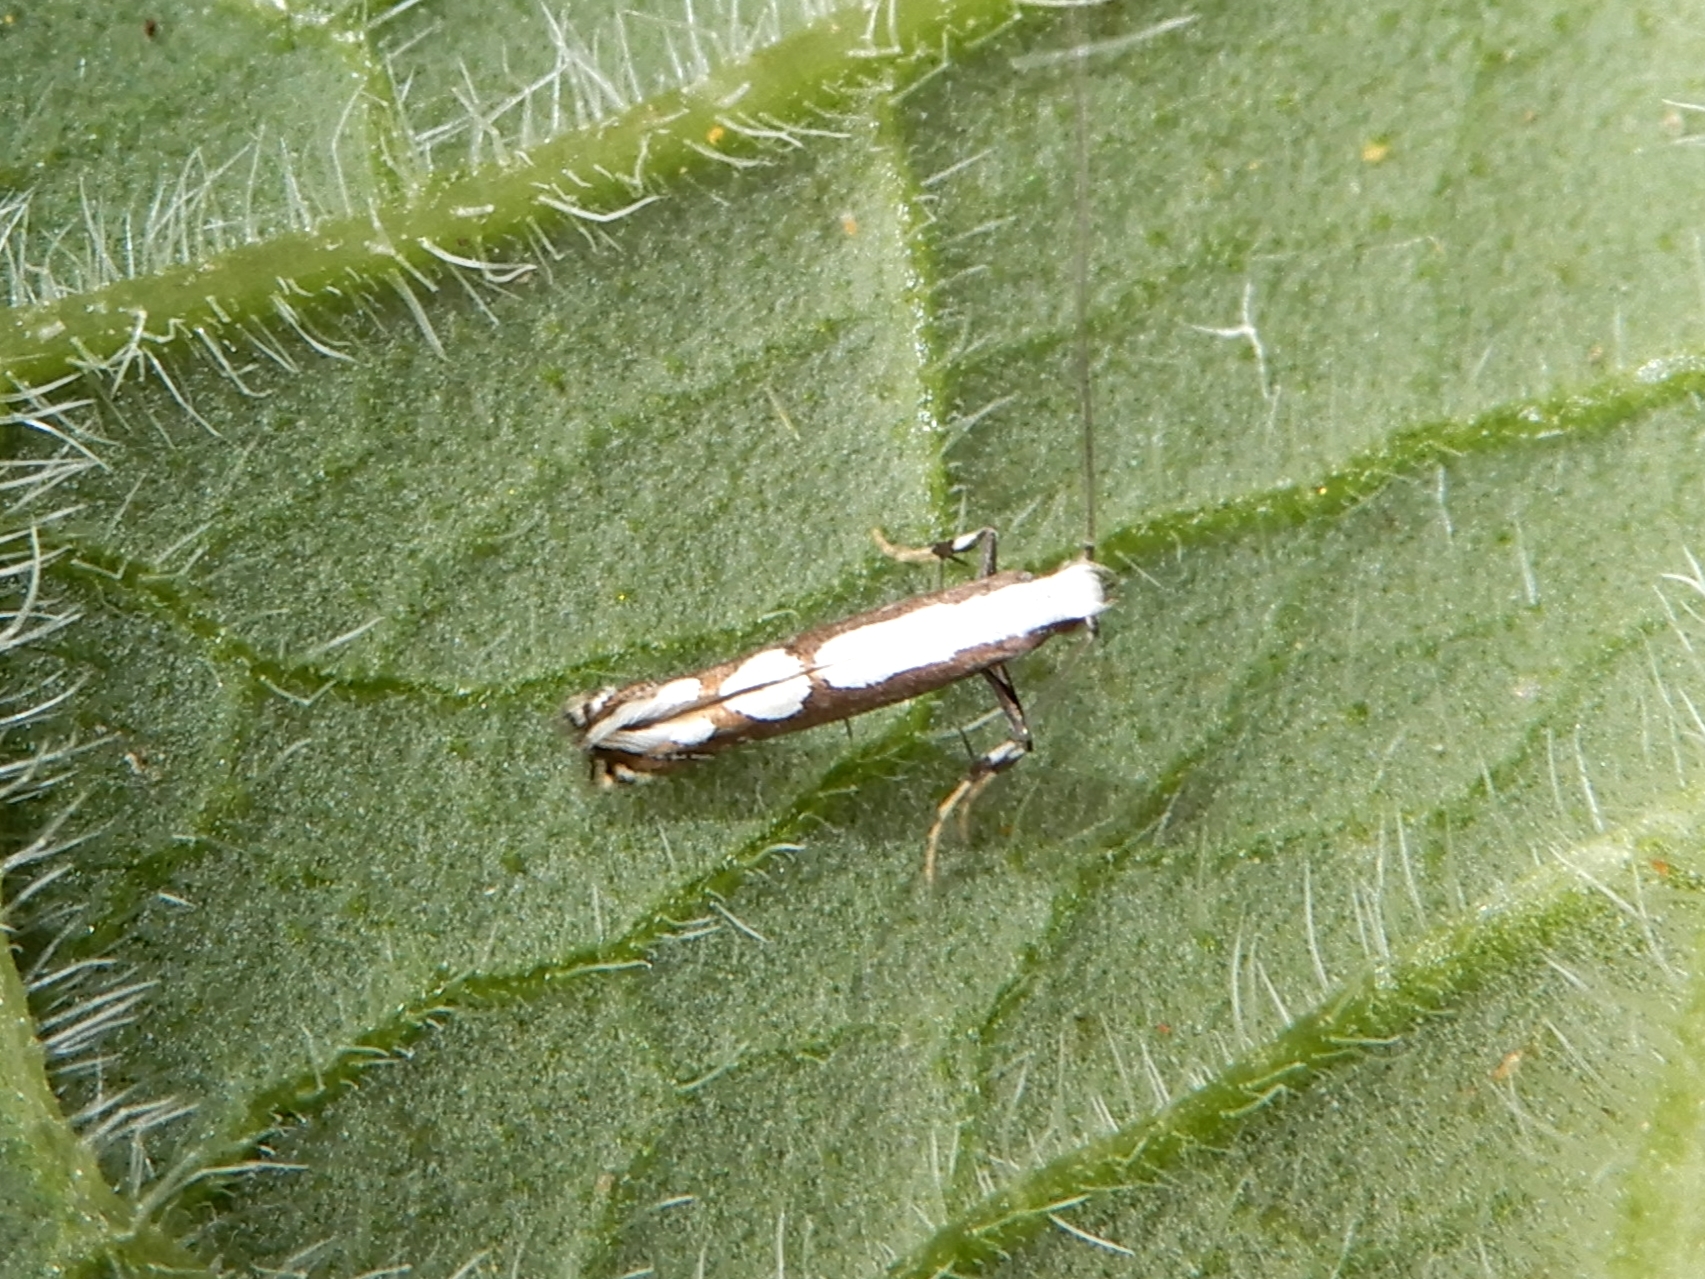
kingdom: Animalia
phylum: Arthropoda
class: Insecta
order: Lepidoptera
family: Gracillariidae
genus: Dialectica
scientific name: Dialectica scalariella
